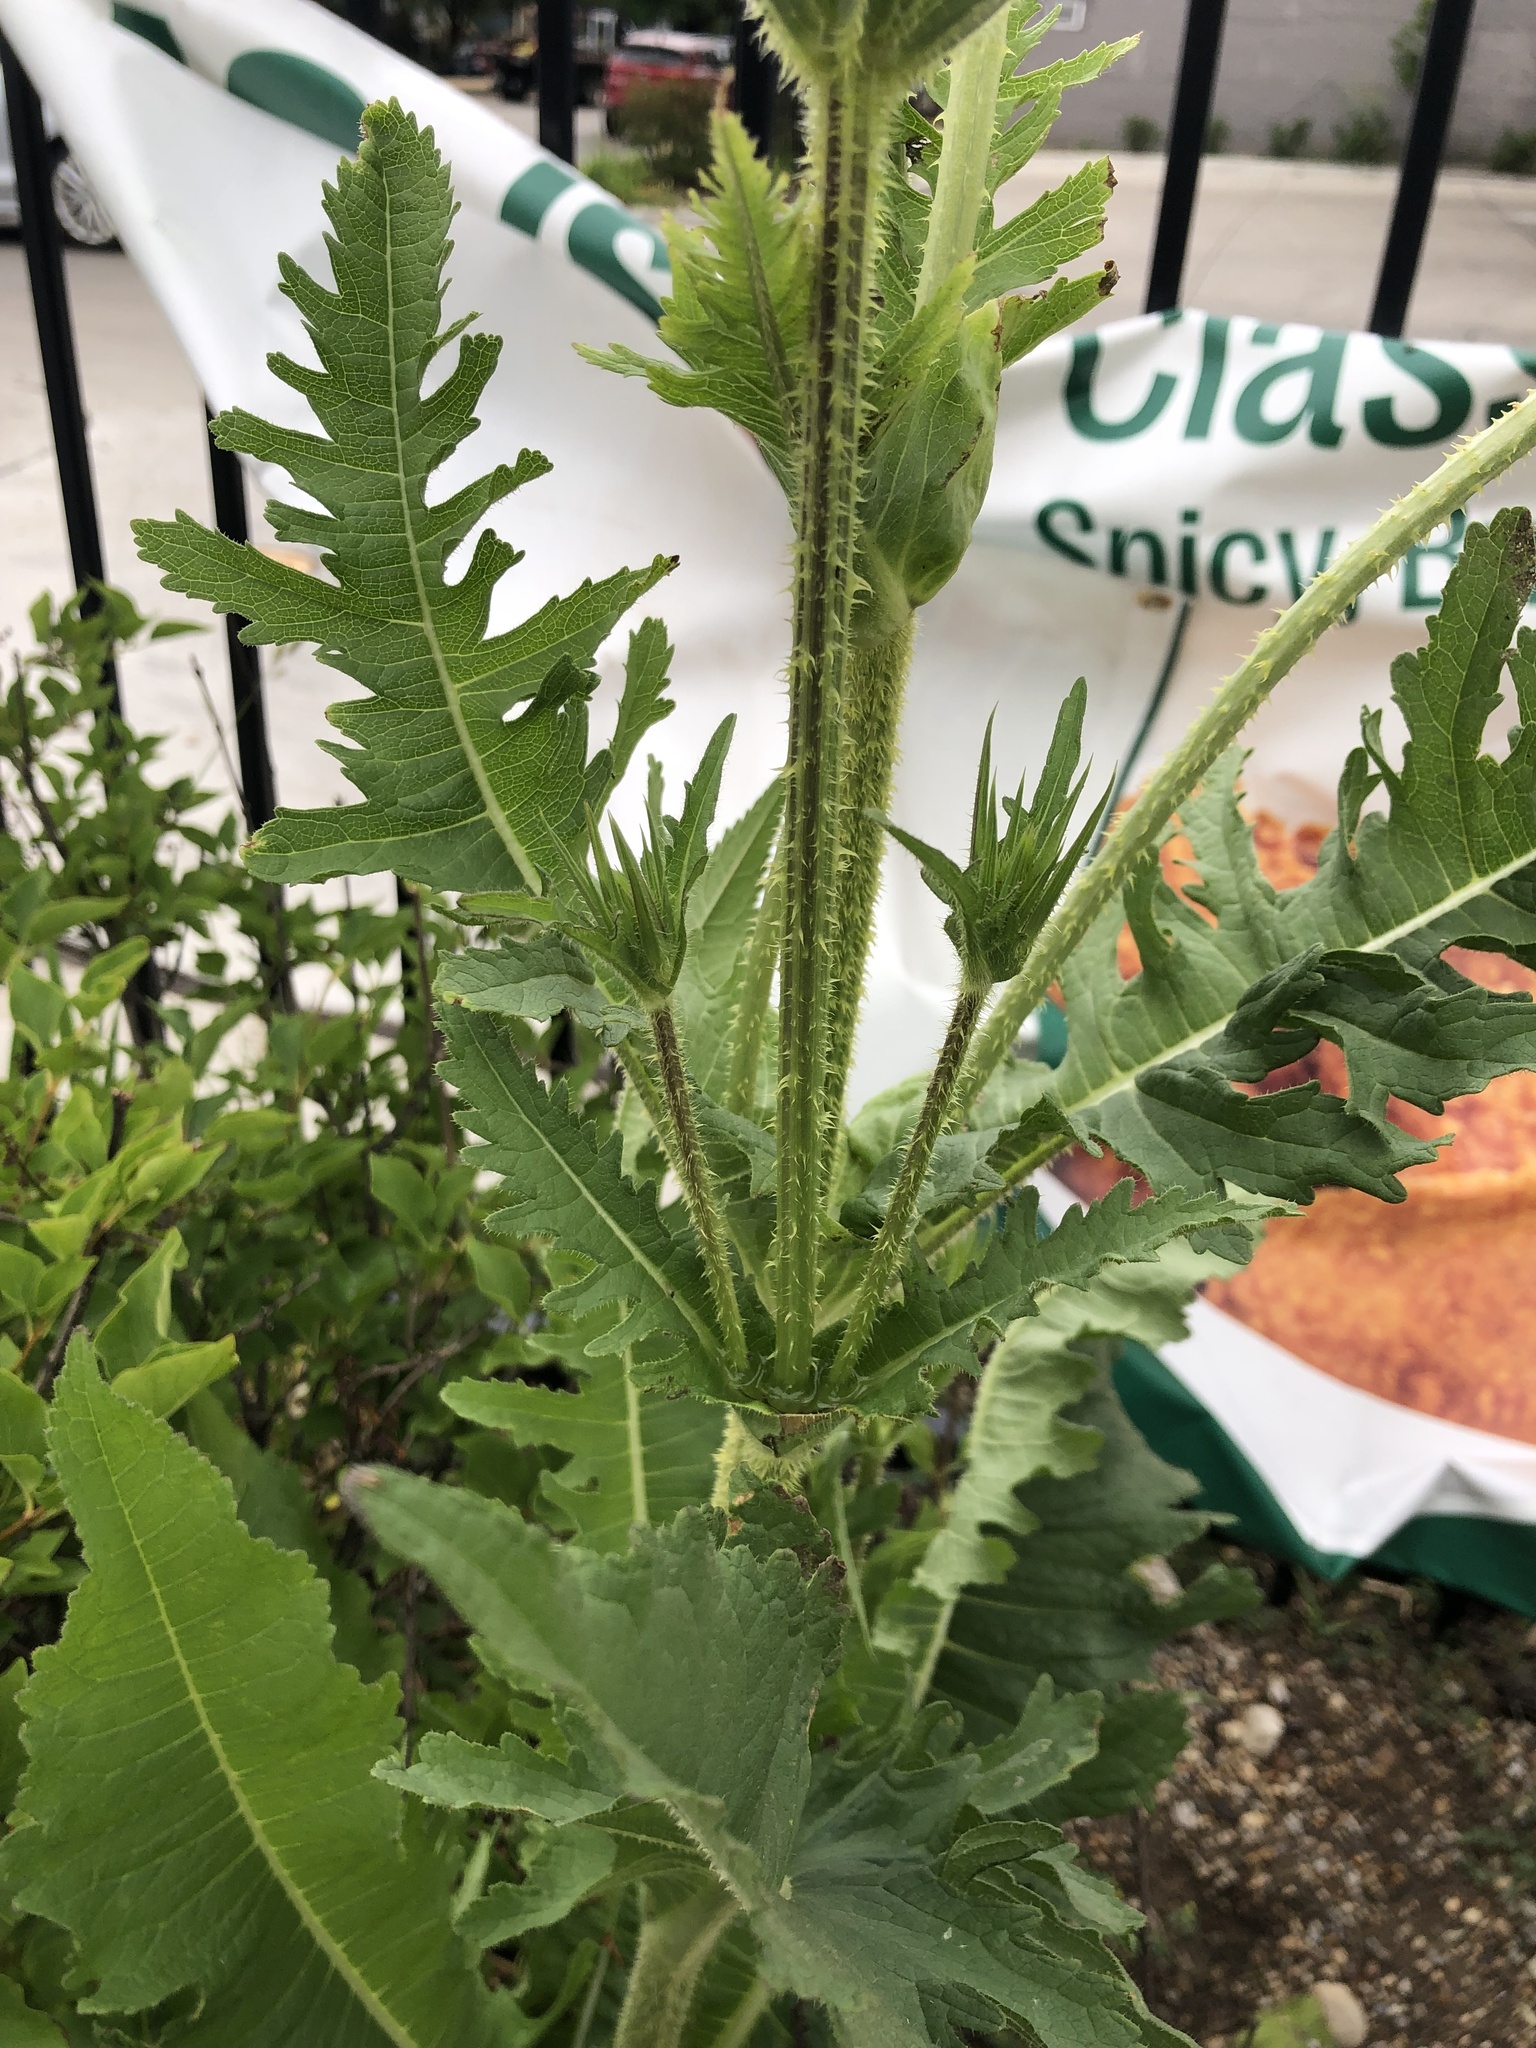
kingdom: Plantae
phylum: Tracheophyta
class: Magnoliopsida
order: Dipsacales
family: Caprifoliaceae
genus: Dipsacus
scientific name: Dipsacus laciniatus
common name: Cut-leaved teasel
